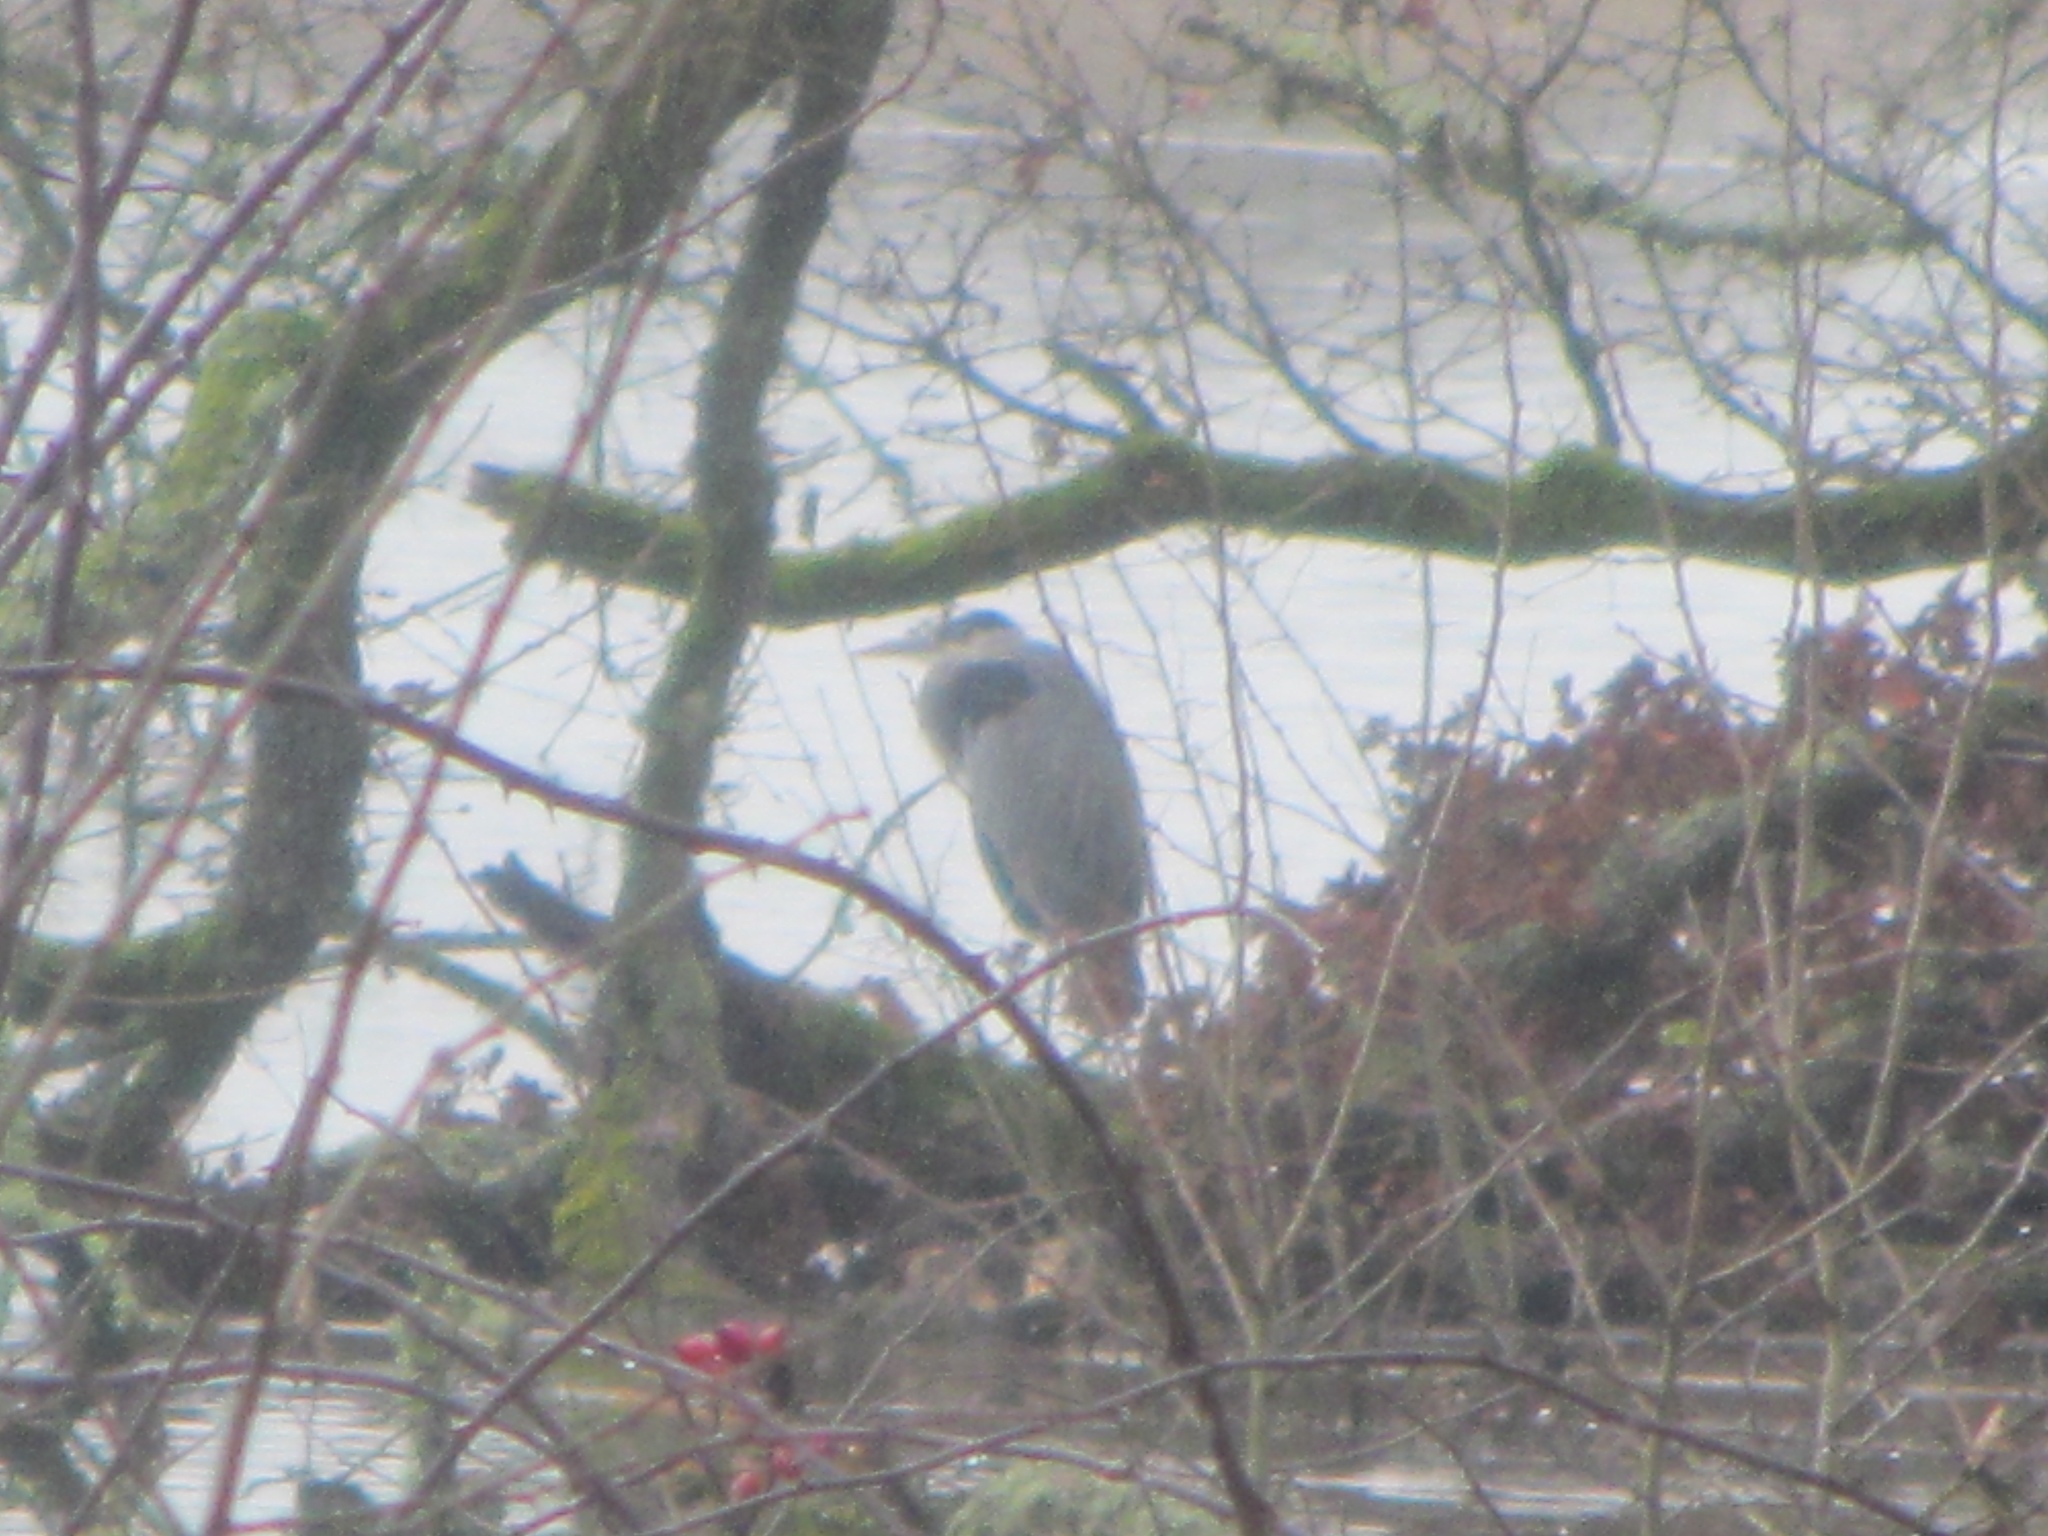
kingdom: Animalia
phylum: Chordata
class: Aves
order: Pelecaniformes
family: Ardeidae
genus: Ardea
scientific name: Ardea herodias
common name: Great blue heron
